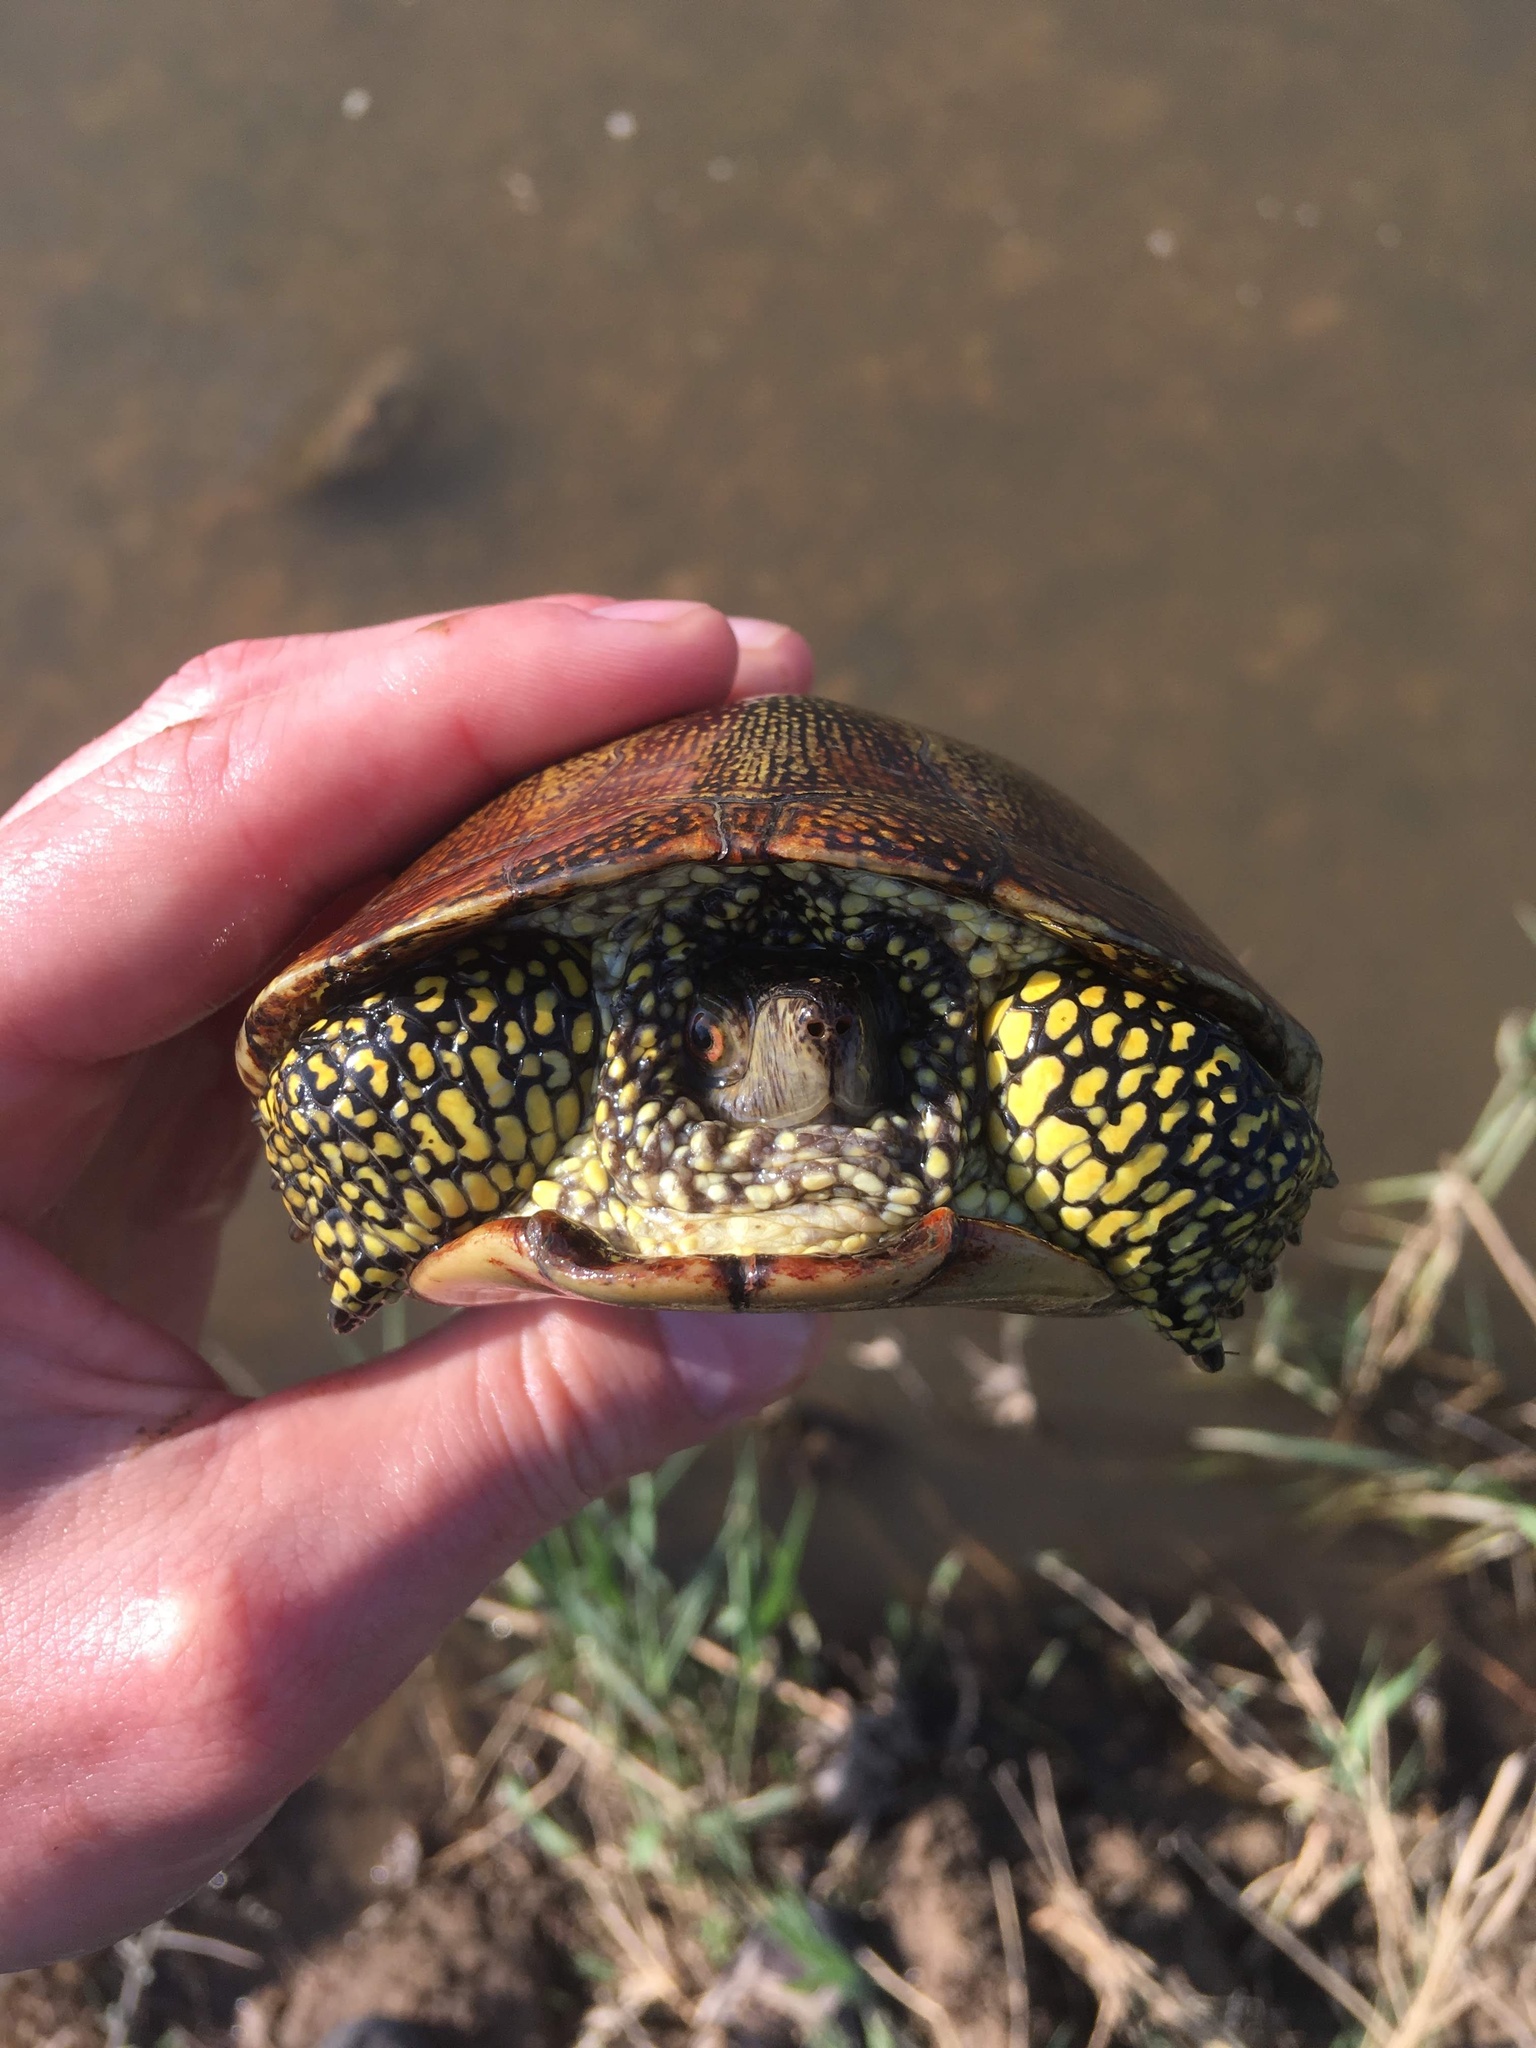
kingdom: Animalia
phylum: Chordata
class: Testudines
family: Emydidae
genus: Emys
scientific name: Emys orbicularis
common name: European pond turtle
